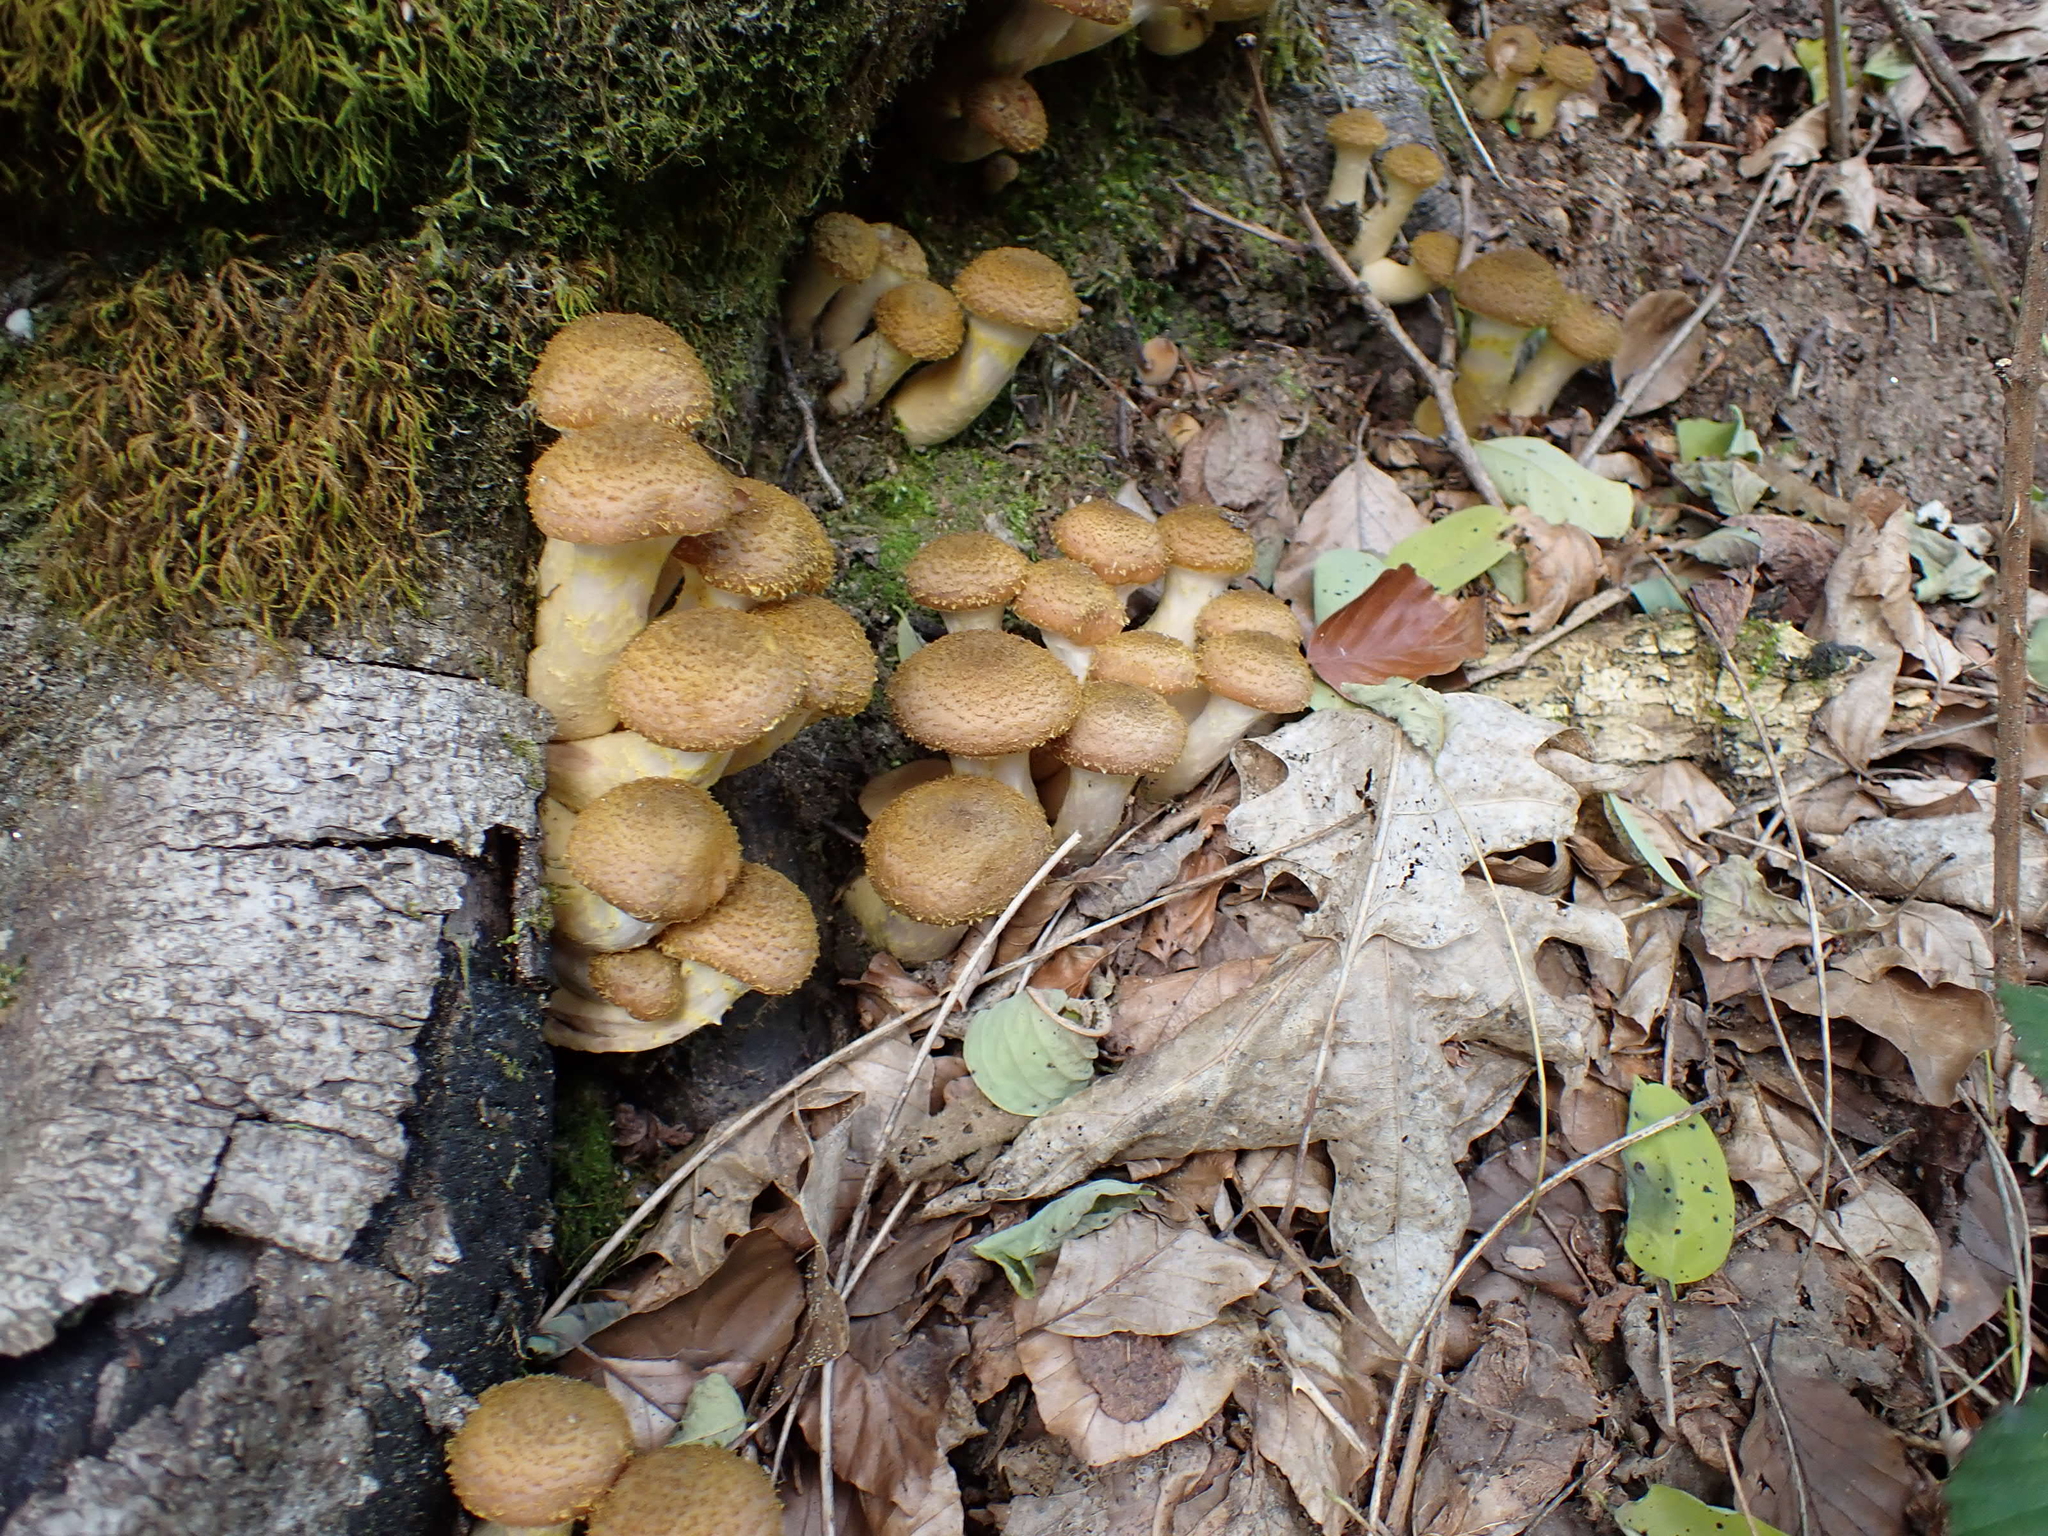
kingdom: Fungi
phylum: Basidiomycota
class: Agaricomycetes
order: Agaricales
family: Physalacriaceae
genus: Armillaria
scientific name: Armillaria gallica
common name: Bulbous honey fungus
